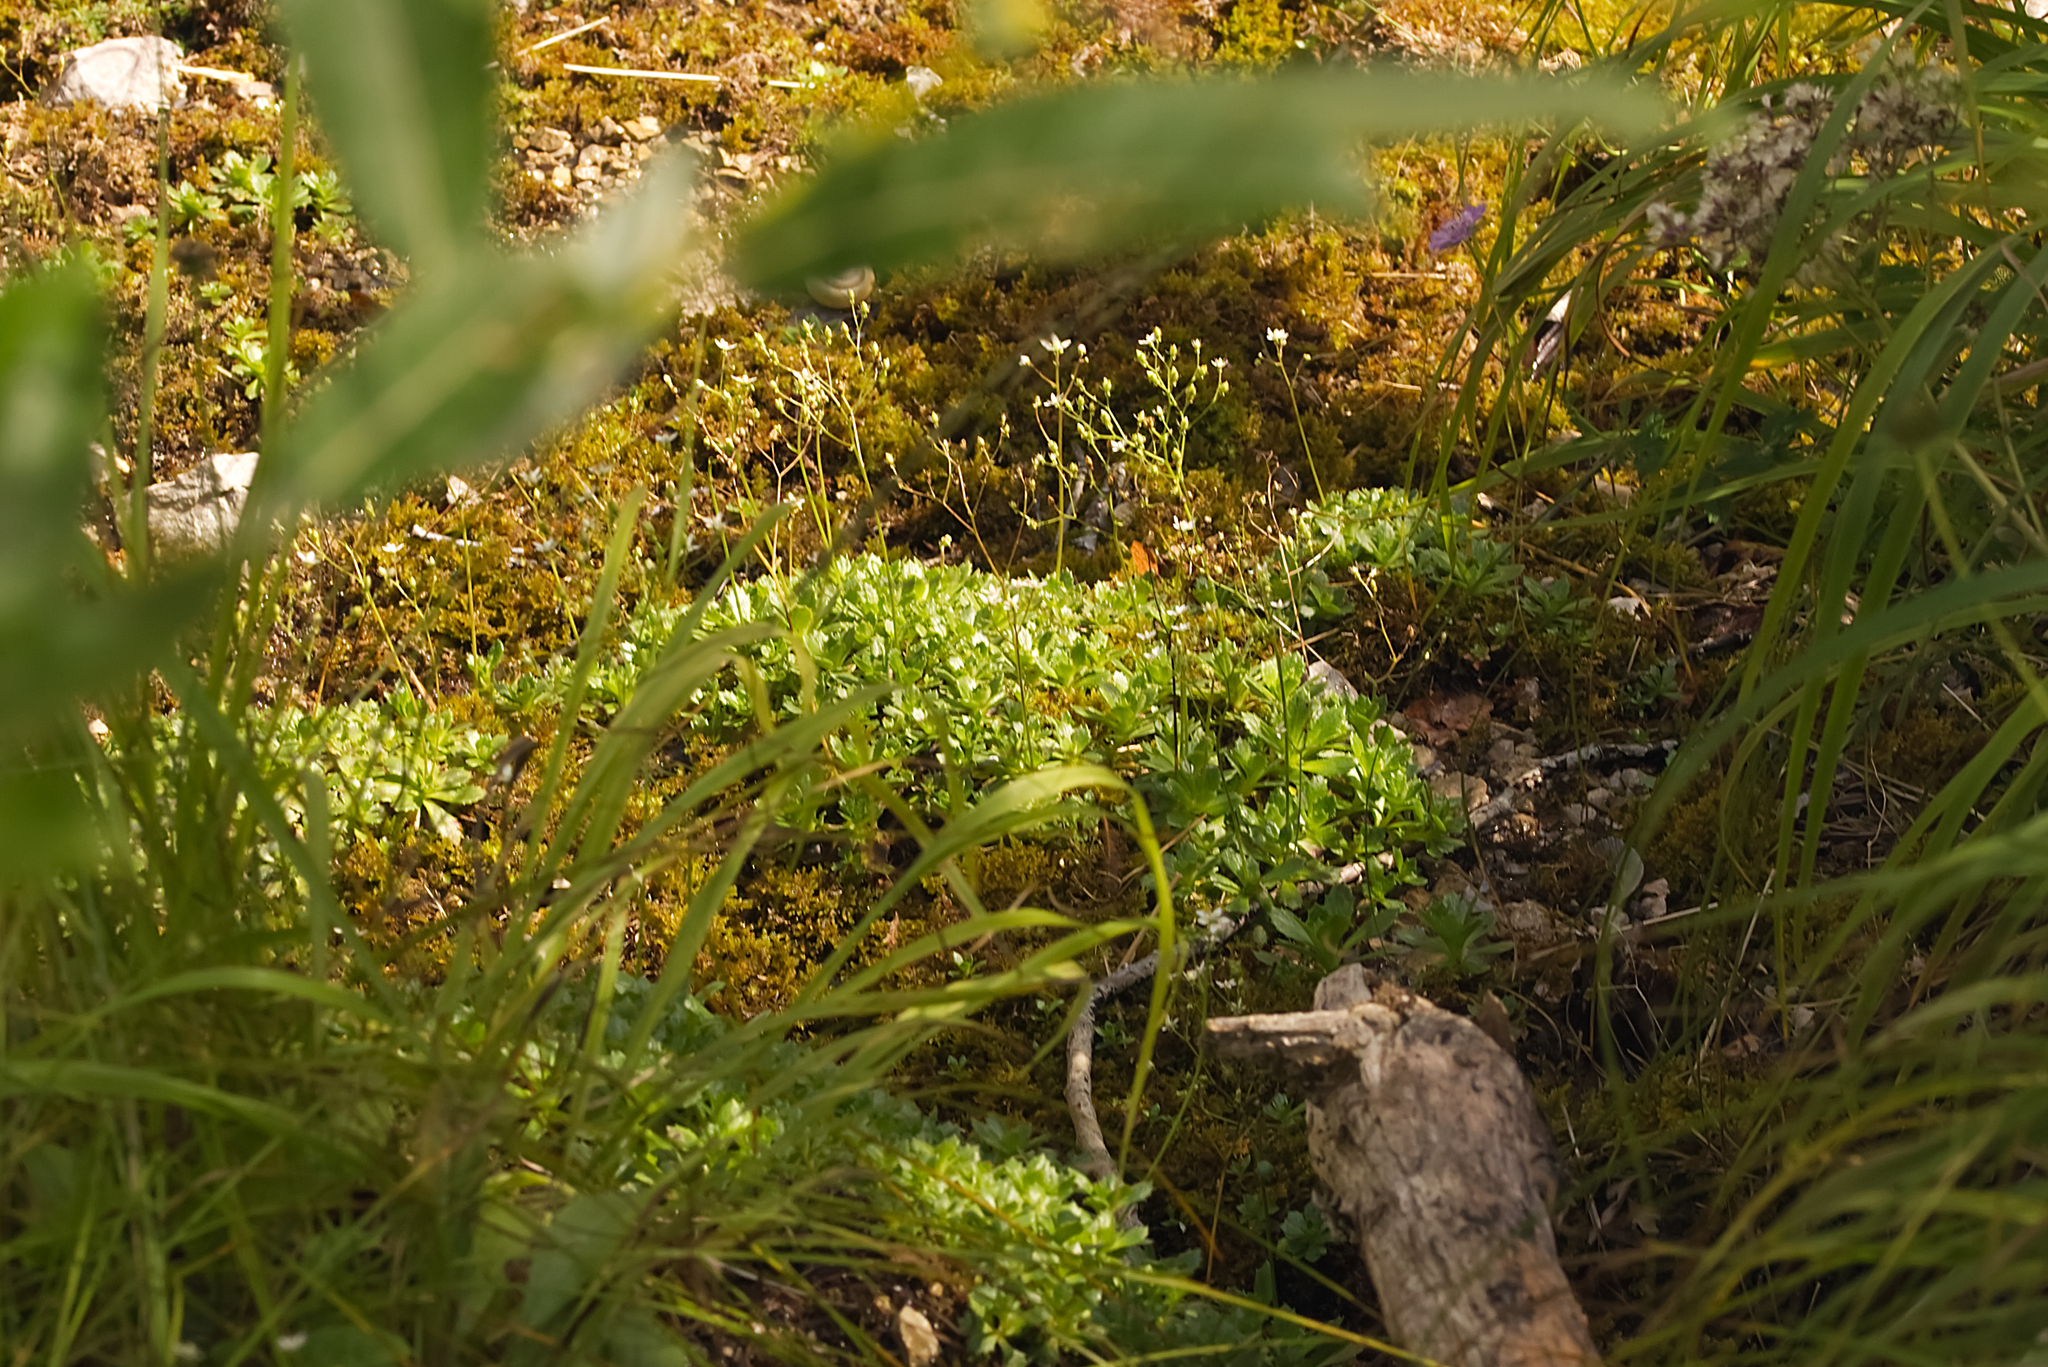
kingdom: Plantae
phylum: Tracheophyta
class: Magnoliopsida
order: Saxifragales
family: Saxifragaceae
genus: Micranthes
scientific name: Micranthes stellaris
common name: Starry saxifrage
